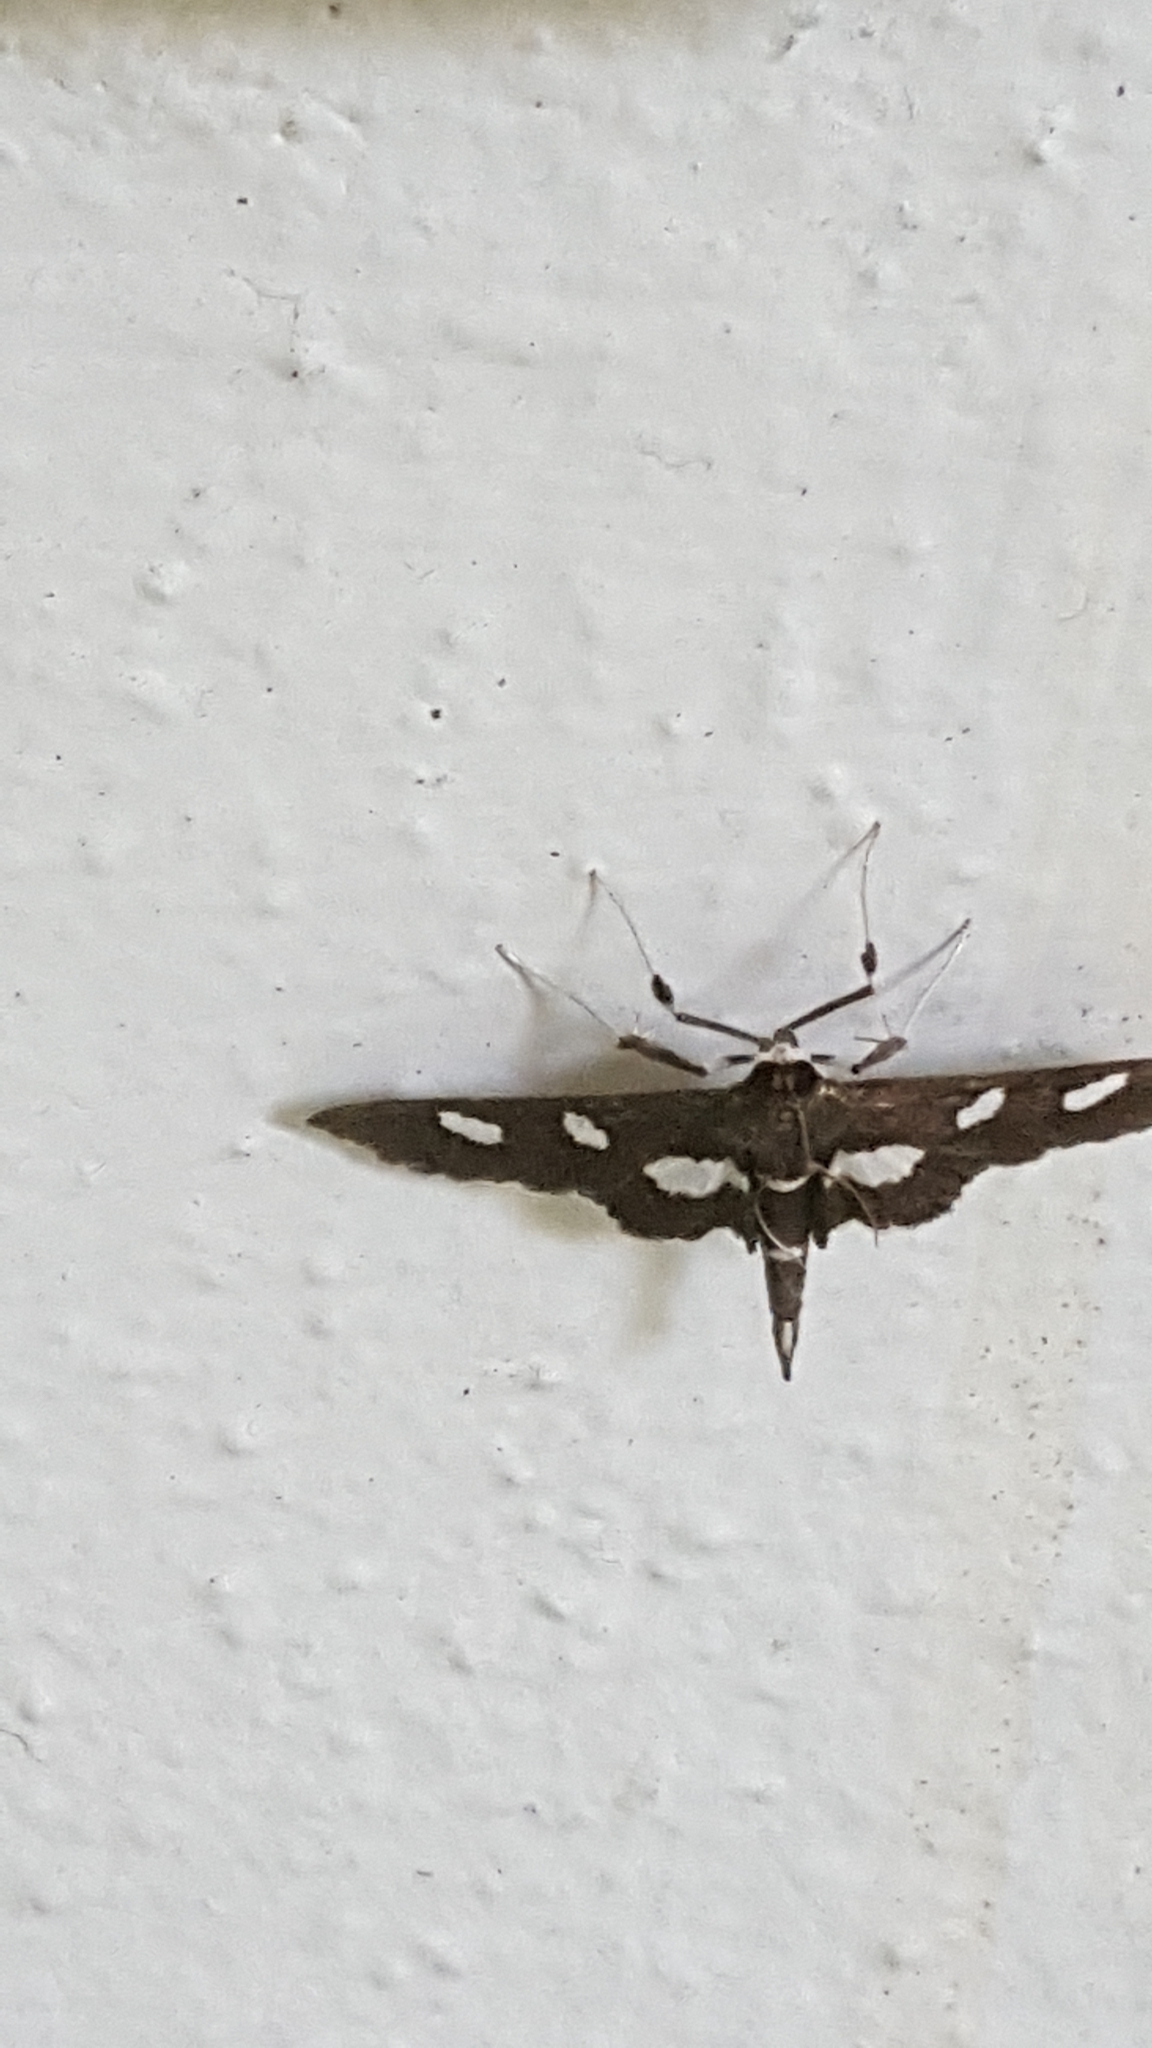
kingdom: Animalia
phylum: Arthropoda
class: Insecta
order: Lepidoptera
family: Crambidae
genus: Desmia
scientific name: Desmia
